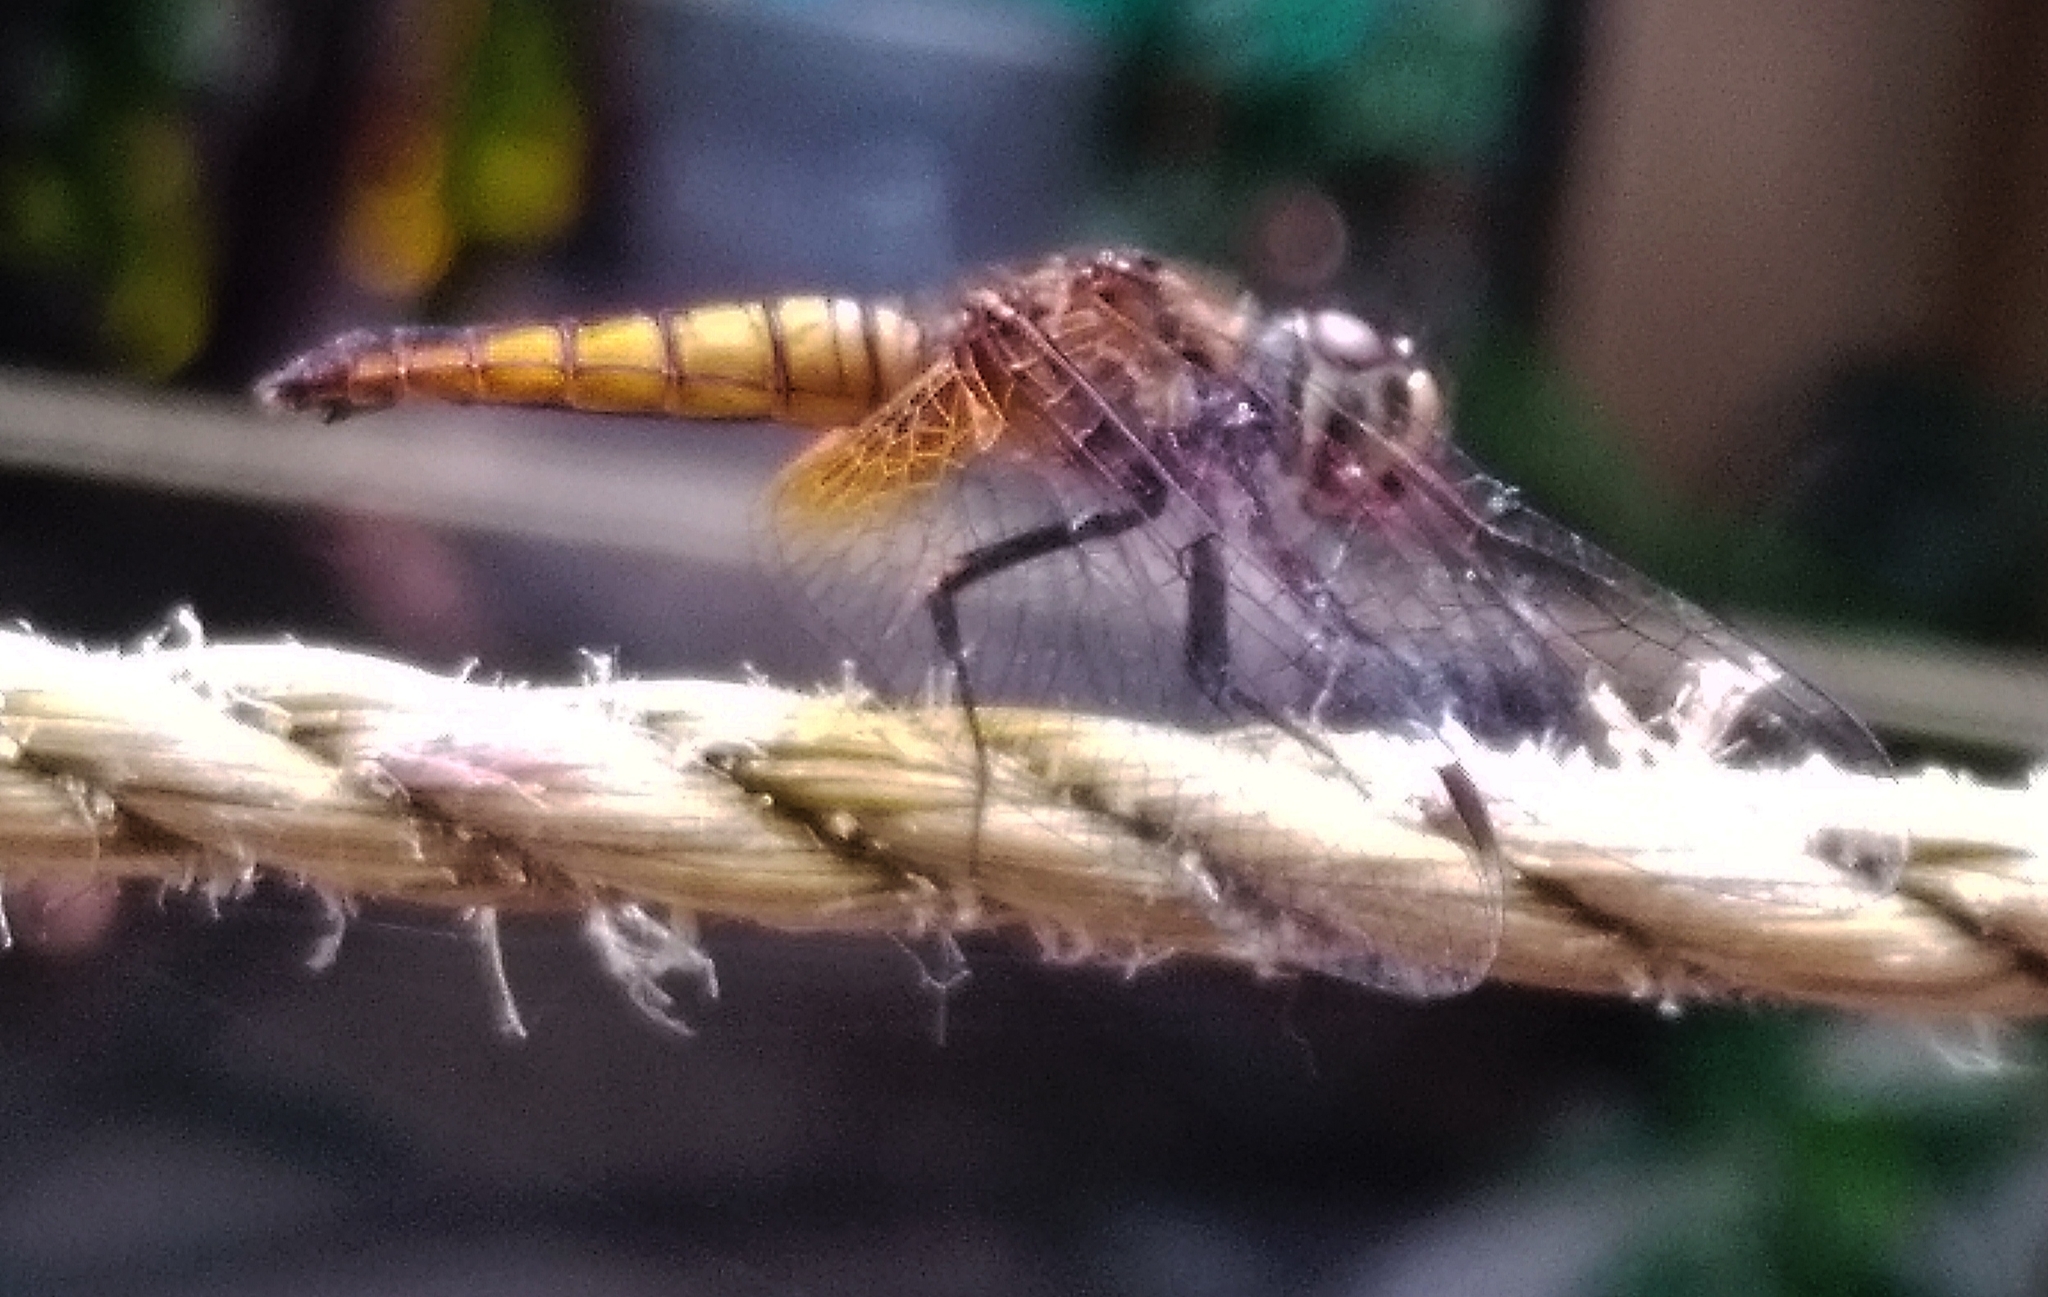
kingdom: Animalia
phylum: Arthropoda
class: Insecta
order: Odonata
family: Libellulidae
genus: Aethriamanta
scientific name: Aethriamanta brevipennis
